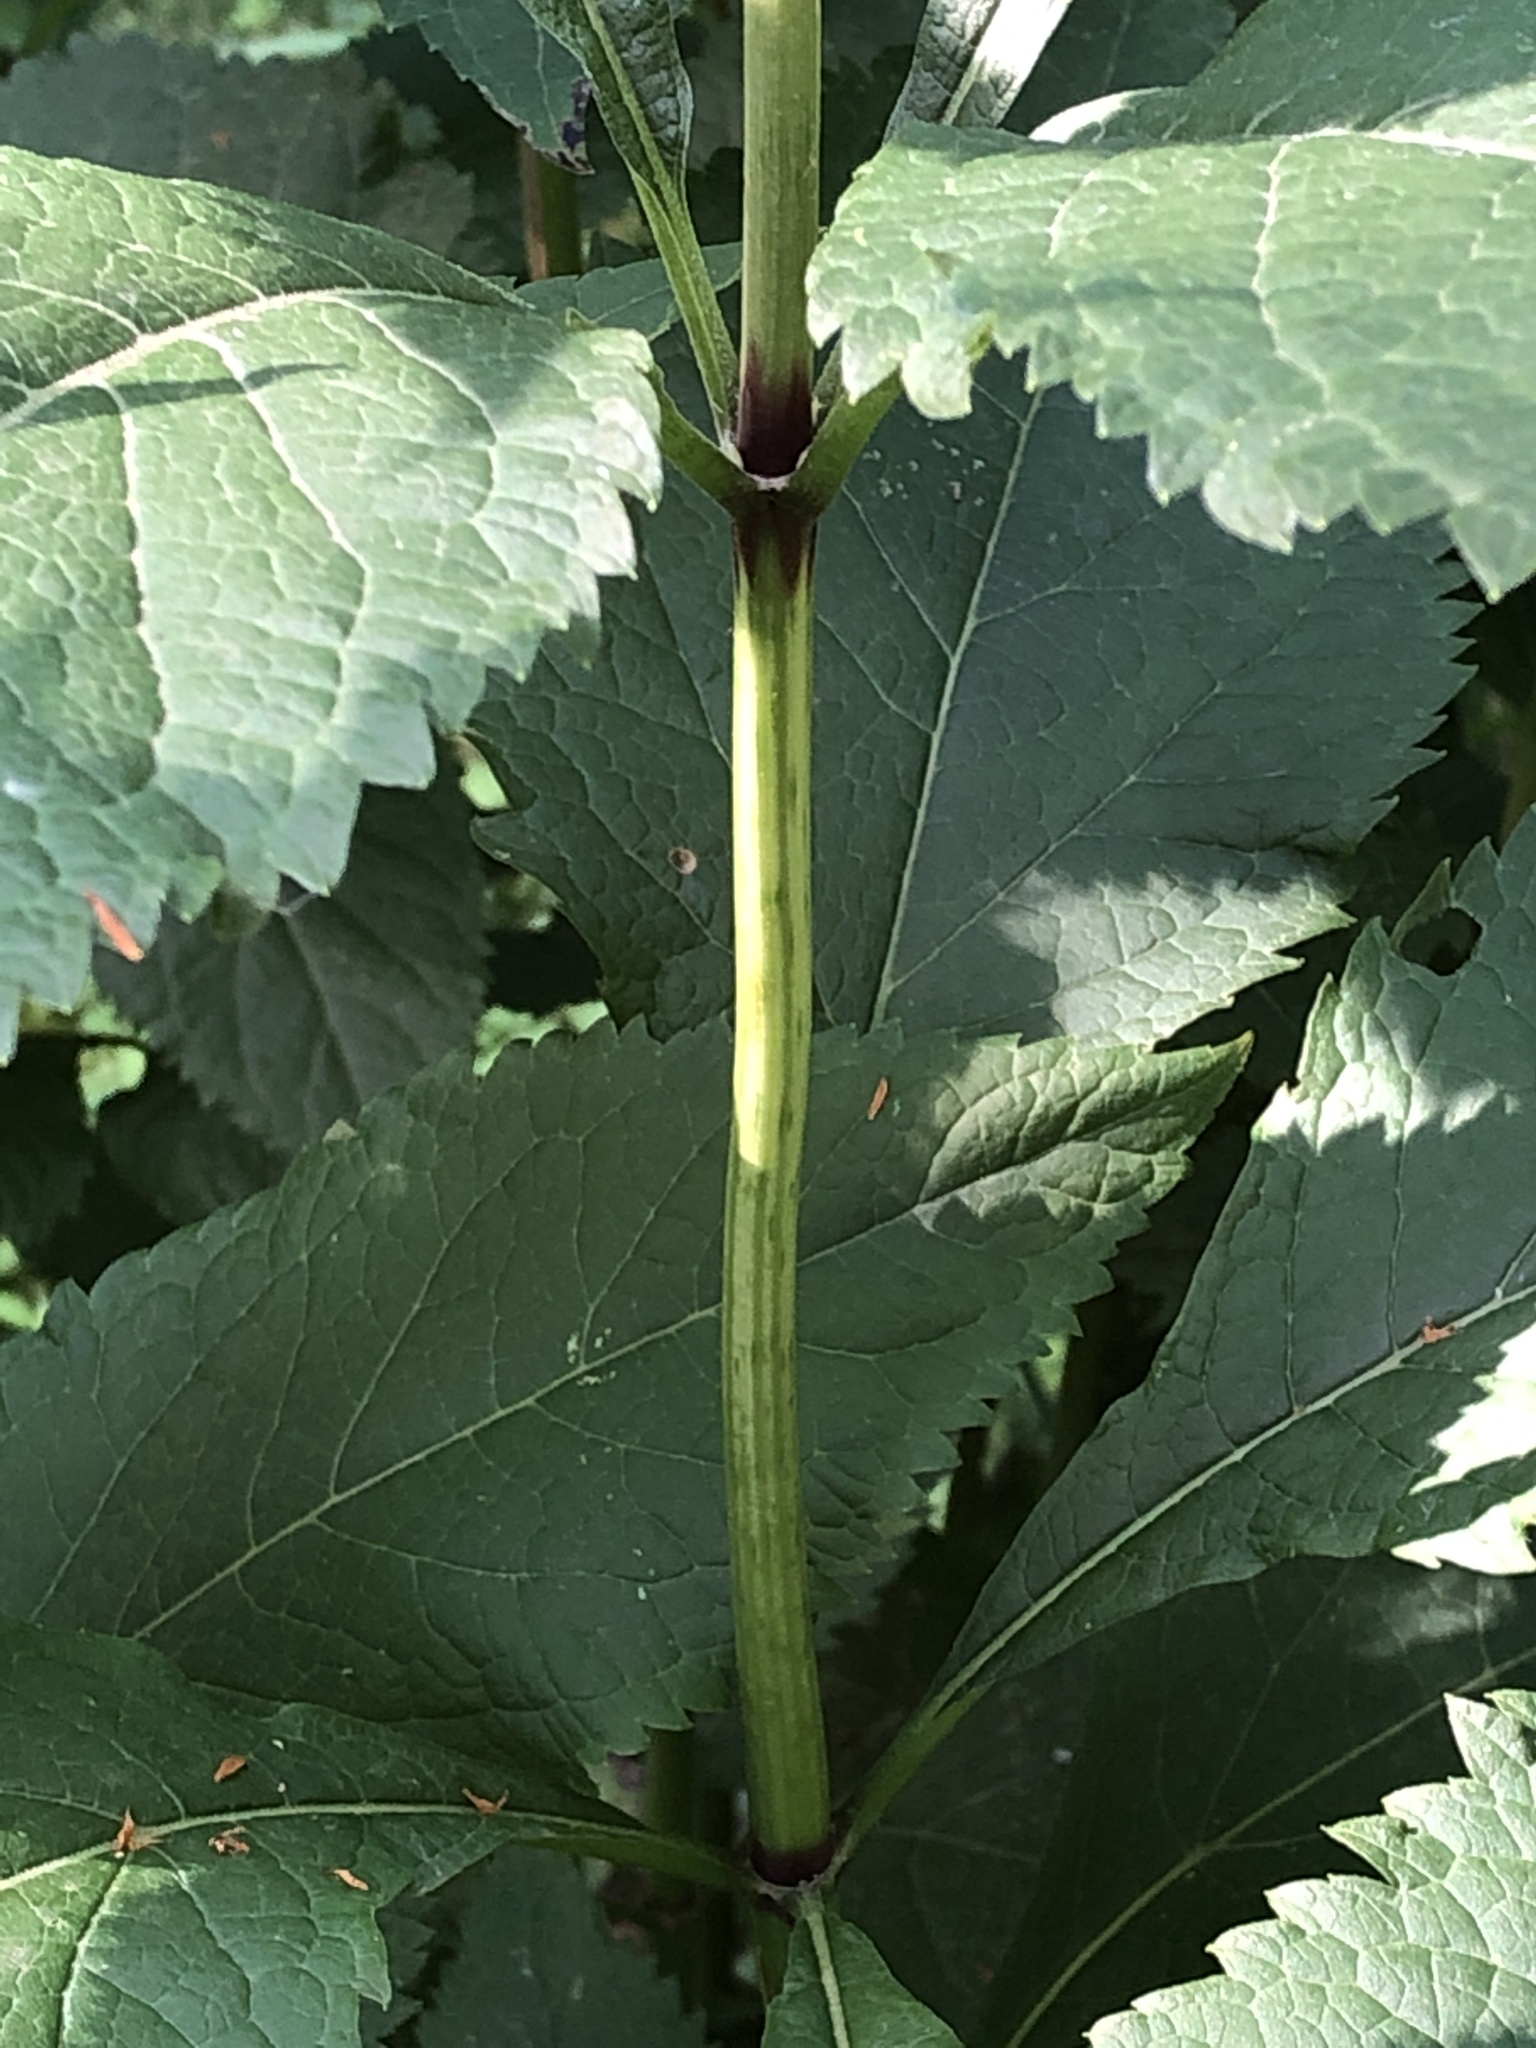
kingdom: Plantae
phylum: Tracheophyta
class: Magnoliopsida
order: Asterales
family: Asteraceae
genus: Eutrochium
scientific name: Eutrochium purpureum
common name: Gravelroot
